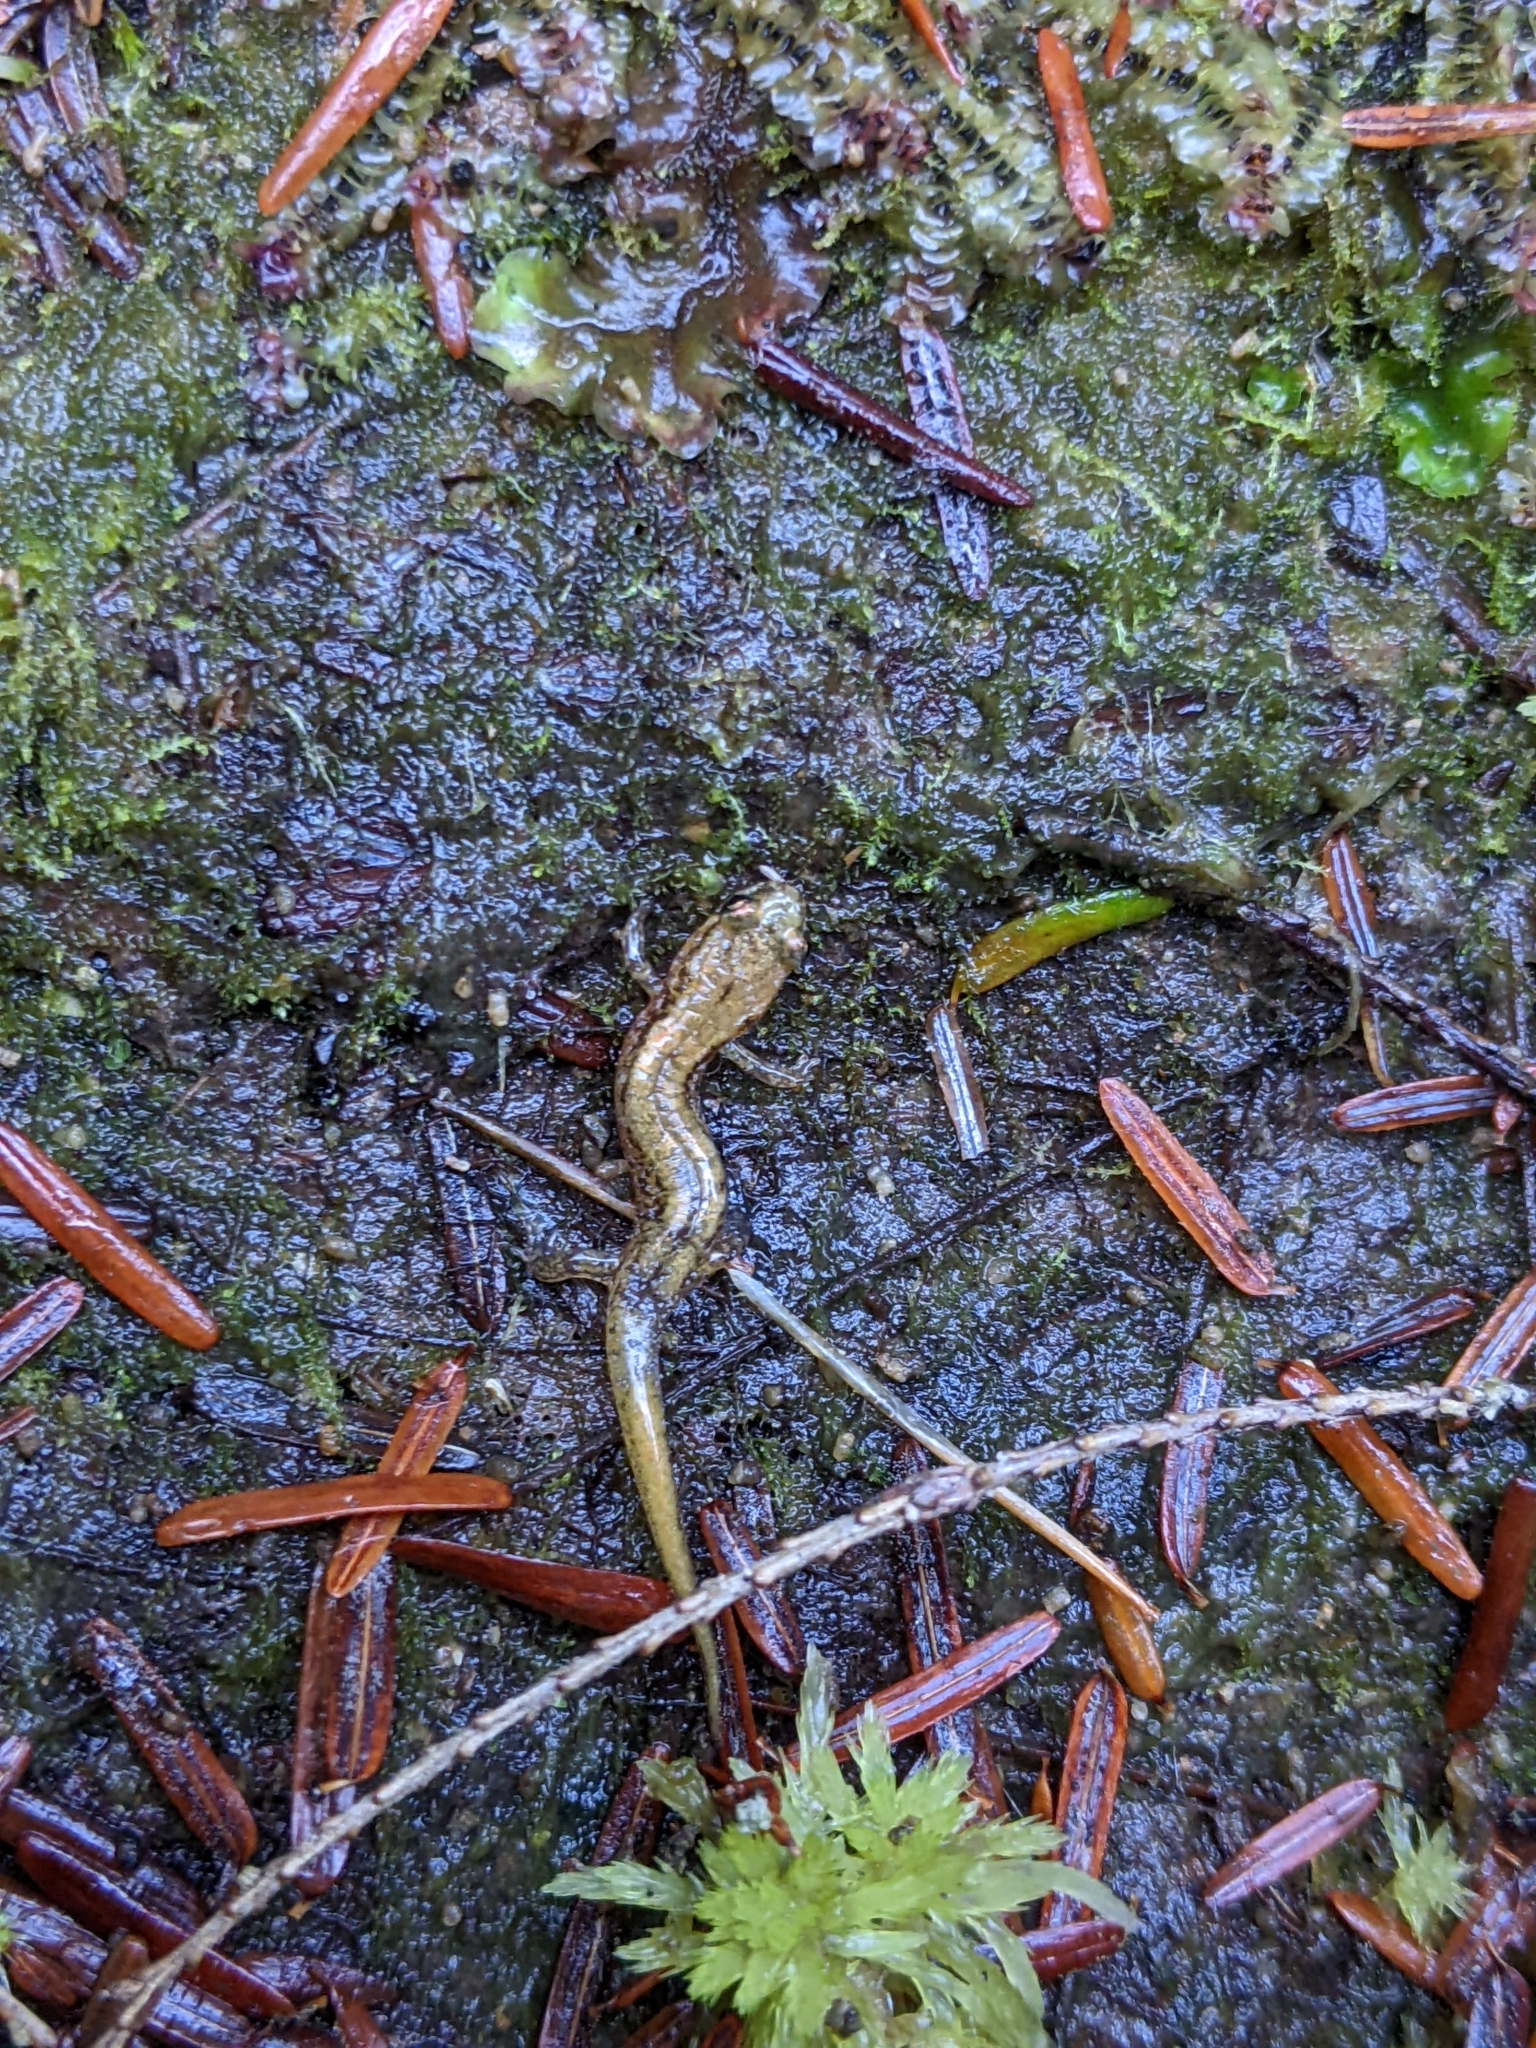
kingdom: Animalia
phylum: Chordata
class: Amphibia
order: Caudata
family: Plethodontidae
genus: Desmognathus
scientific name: Desmognathus ochrophaeus
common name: Allegheny mountain dusky salamander
